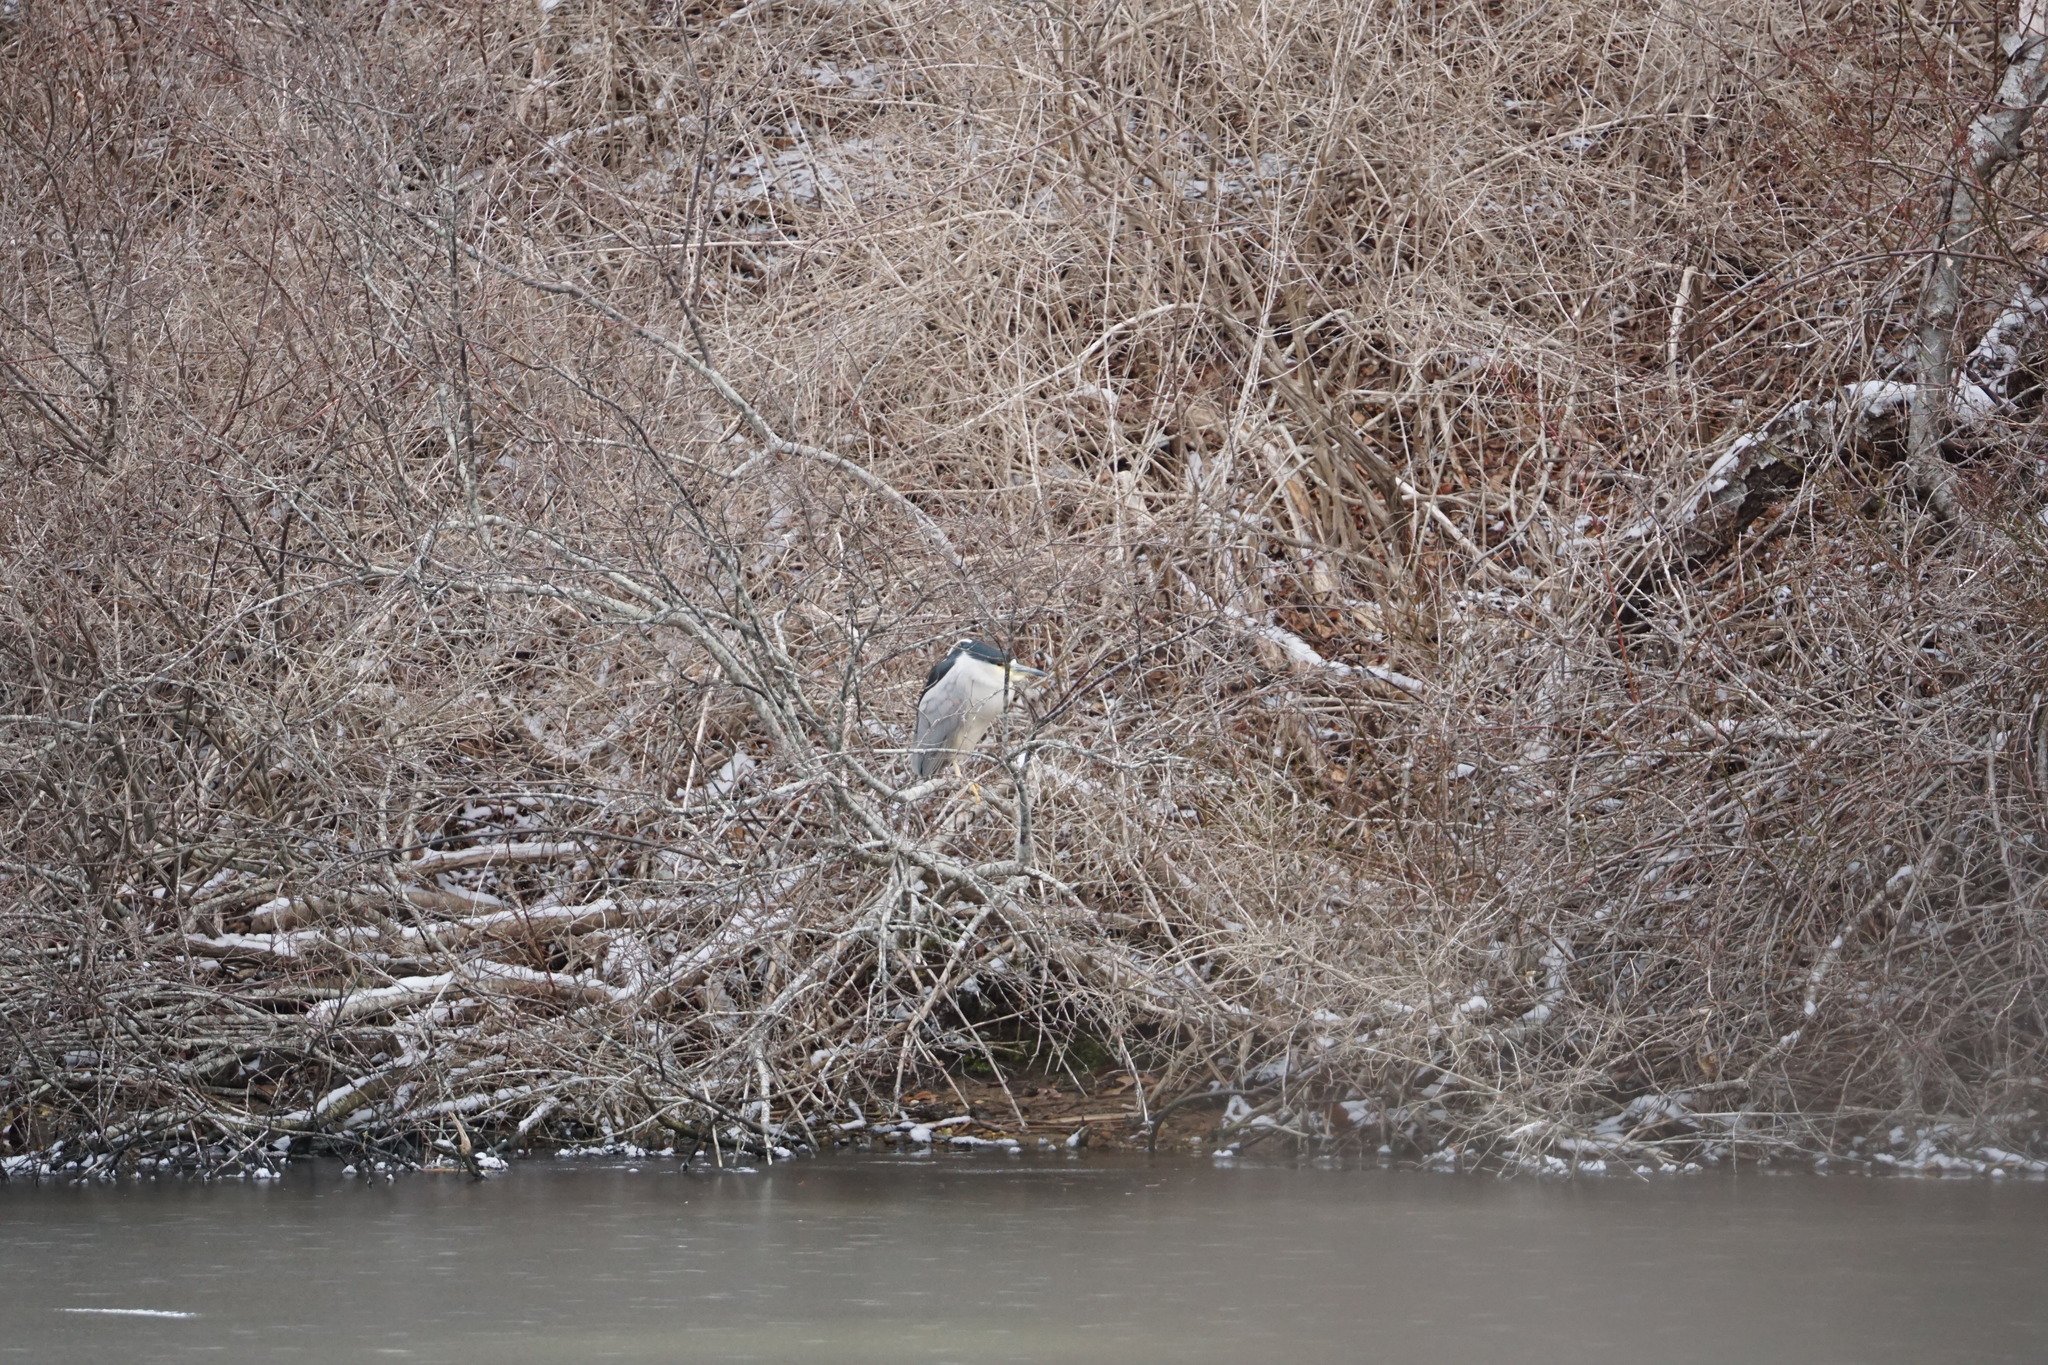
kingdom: Animalia
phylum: Chordata
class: Aves
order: Pelecaniformes
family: Ardeidae
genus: Nycticorax
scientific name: Nycticorax nycticorax
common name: Black-crowned night heron
